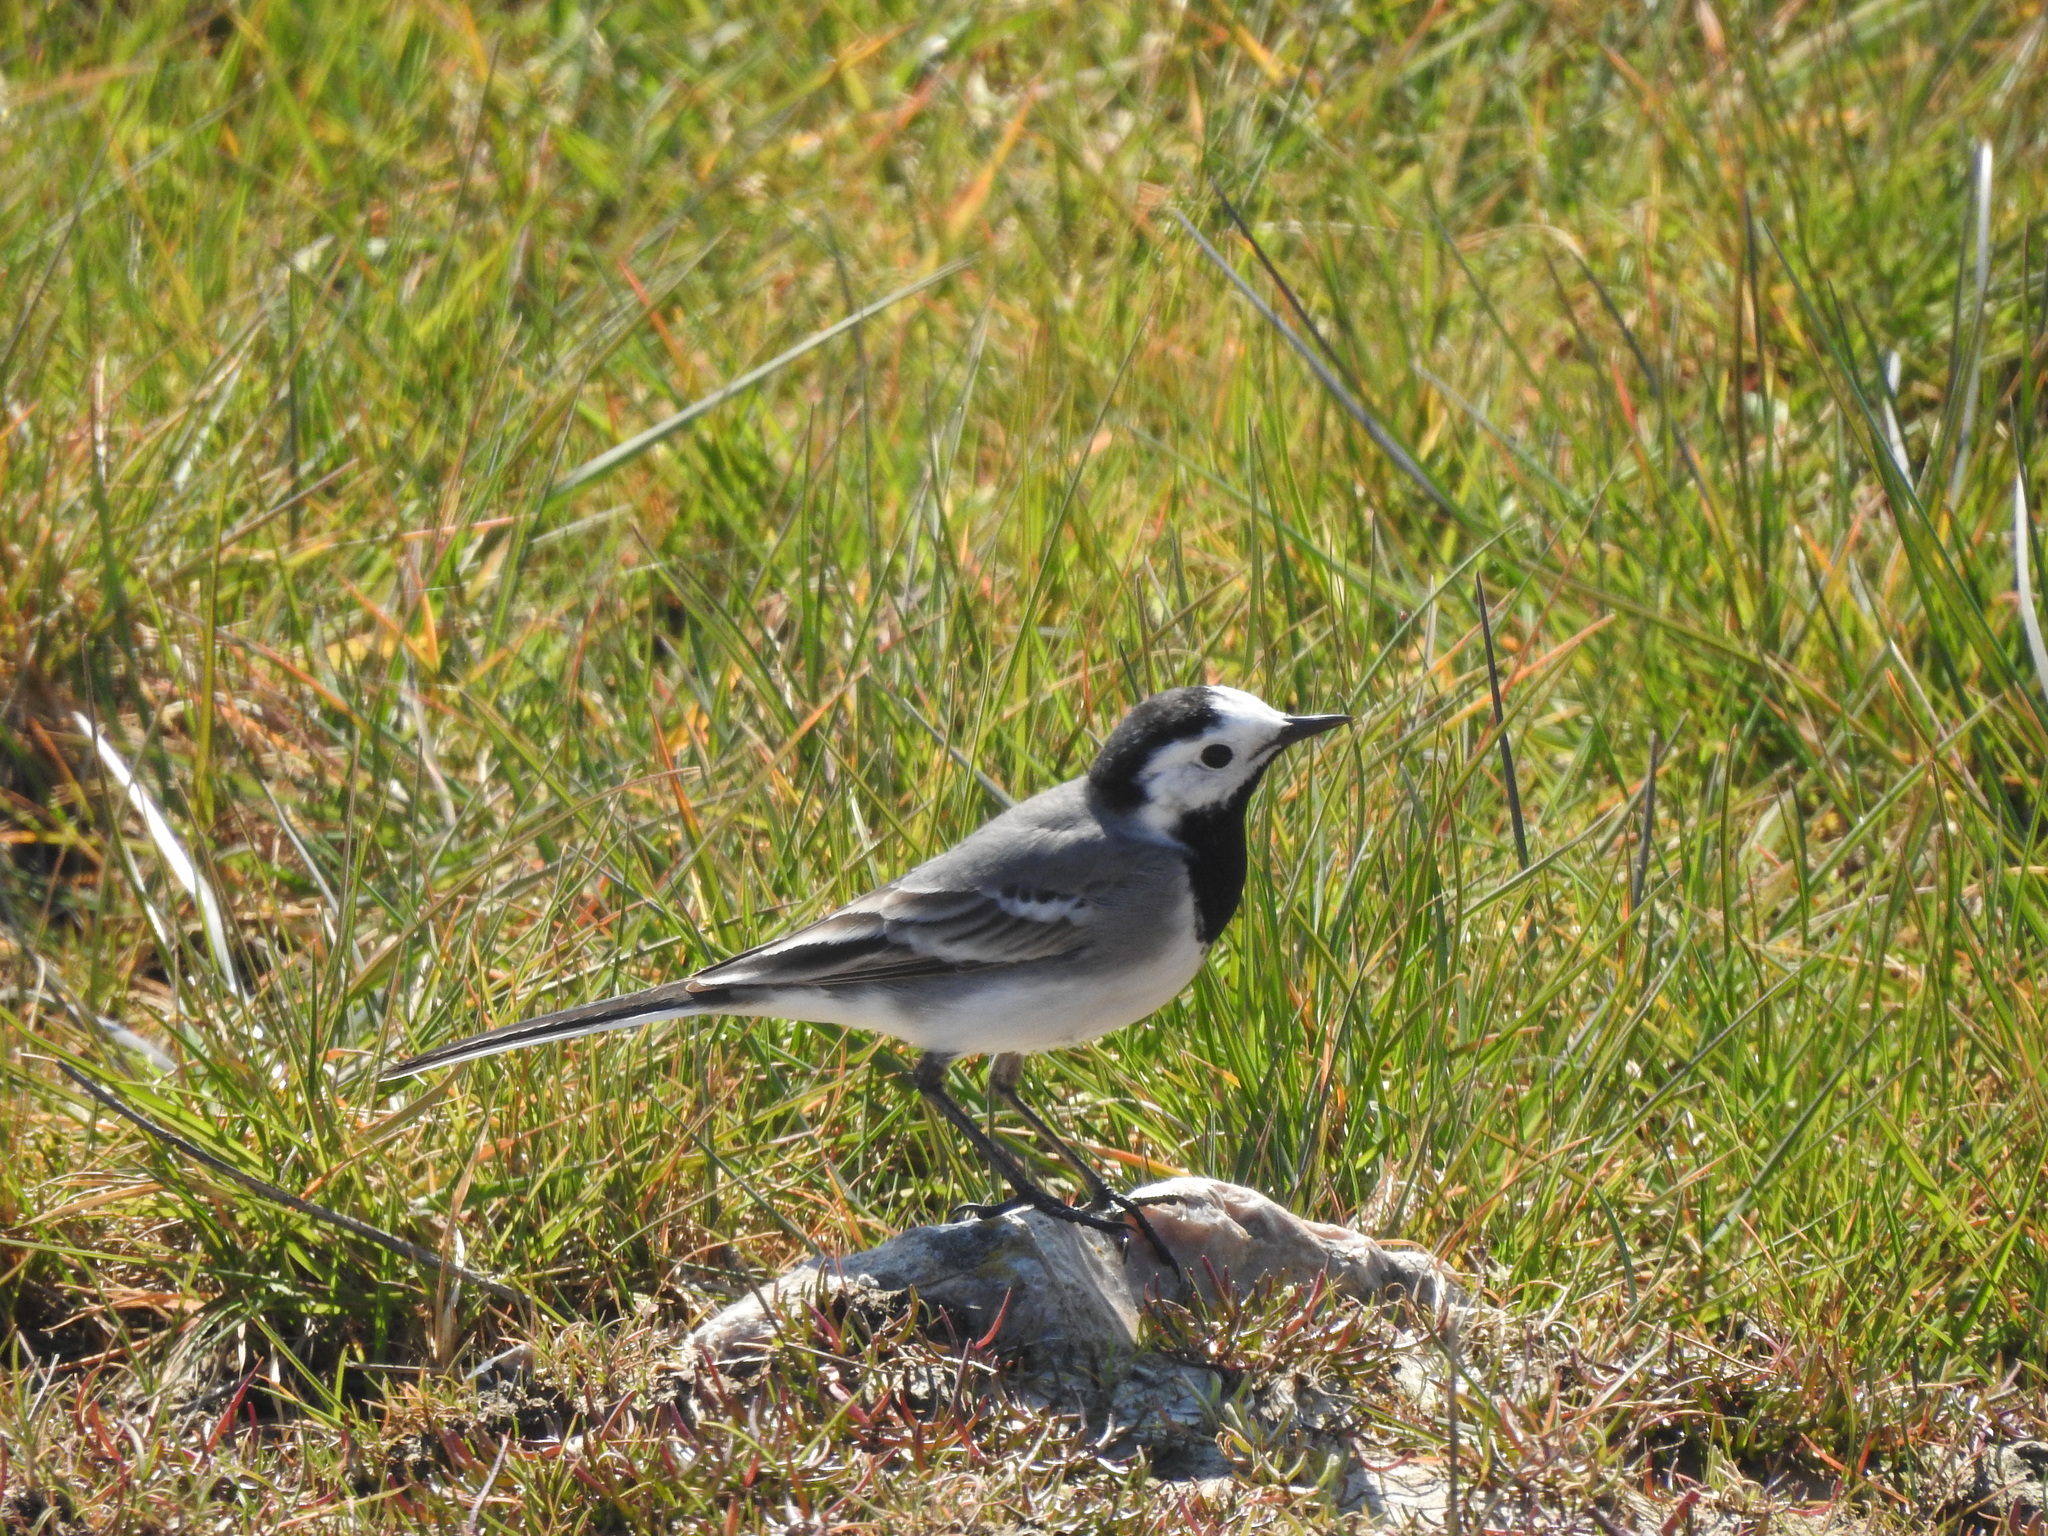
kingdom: Animalia
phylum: Chordata
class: Aves
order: Passeriformes
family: Motacillidae
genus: Motacilla
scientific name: Motacilla alba
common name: White wagtail
